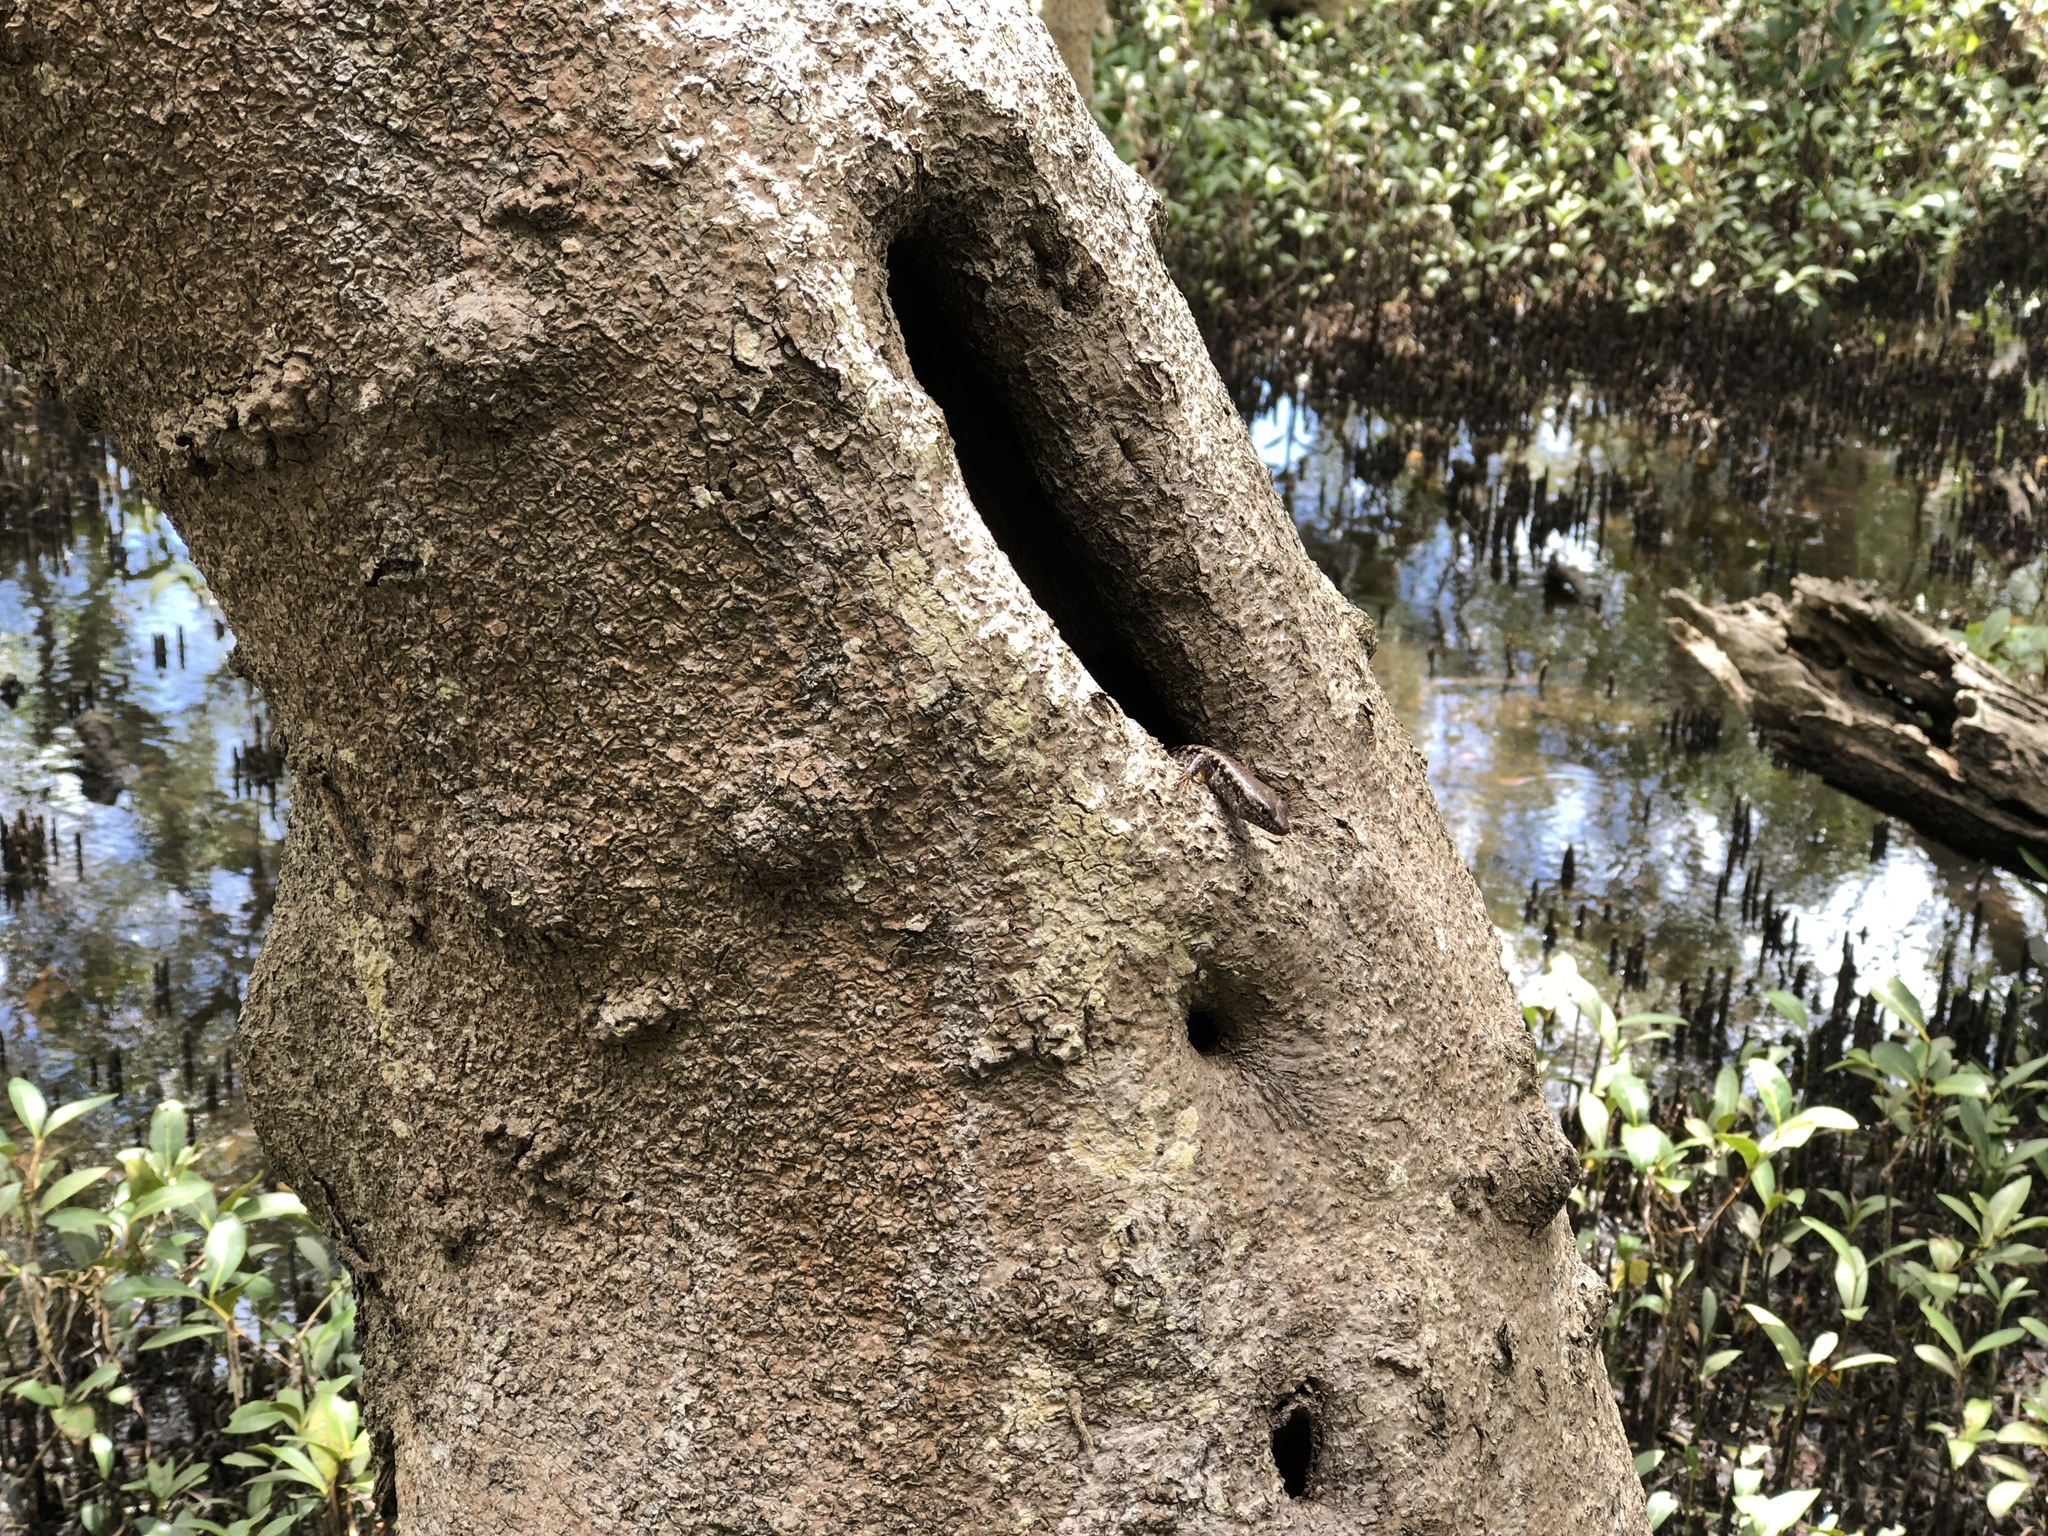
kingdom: Animalia
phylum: Chordata
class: Squamata
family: Scincidae
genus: Concinnia
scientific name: Concinnia tenuis
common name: Bar-sided forest-skink
